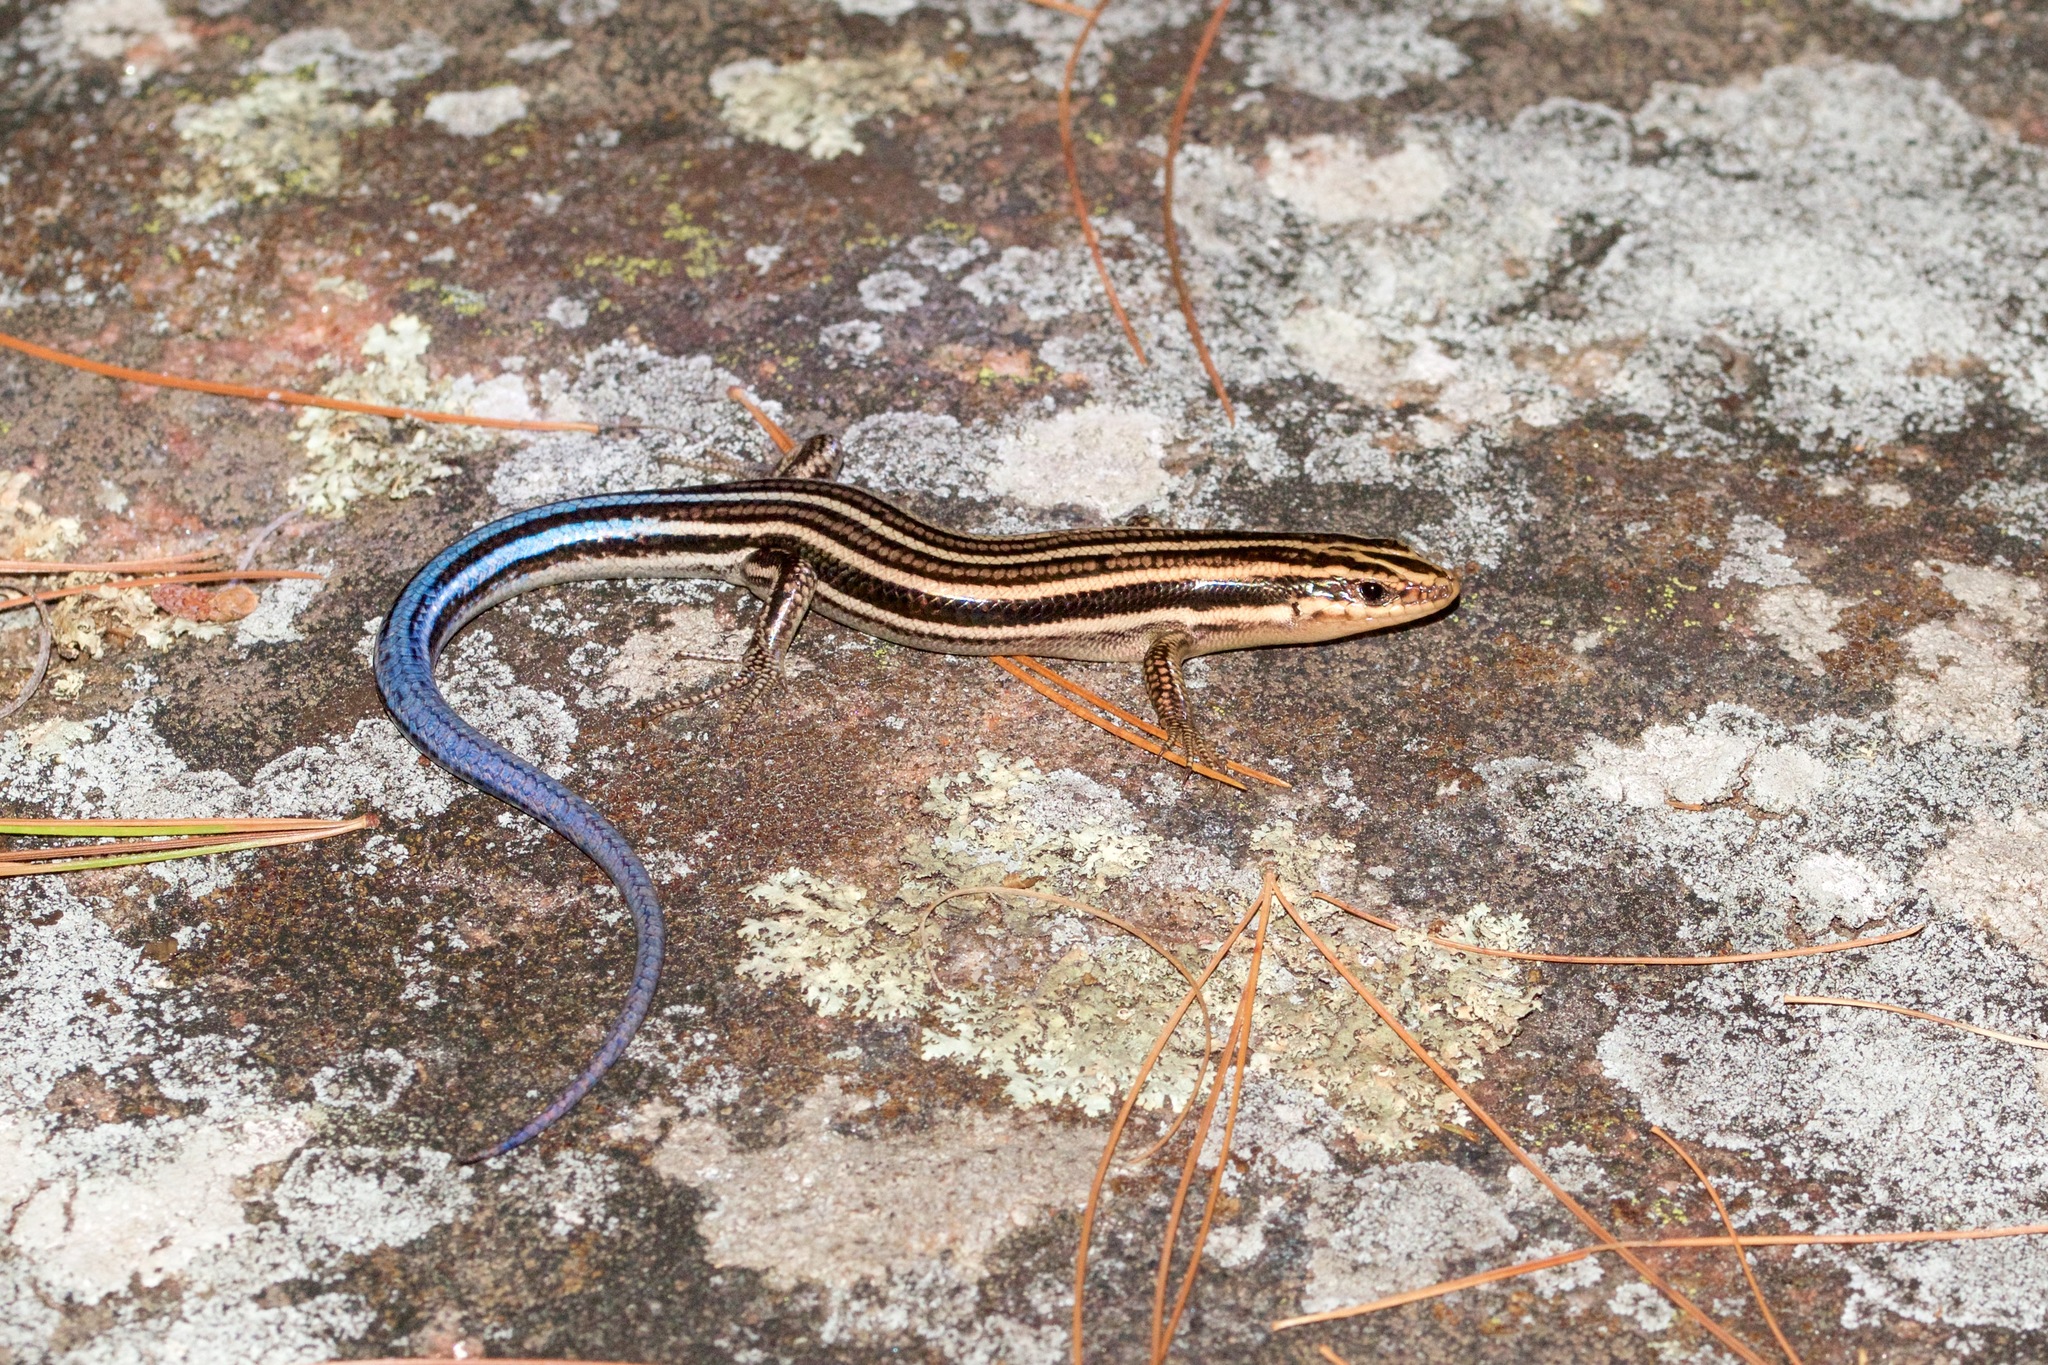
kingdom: Animalia
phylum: Chordata
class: Squamata
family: Scincidae
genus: Plestiodon
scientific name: Plestiodon fasciatus
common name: Five-lined skink
